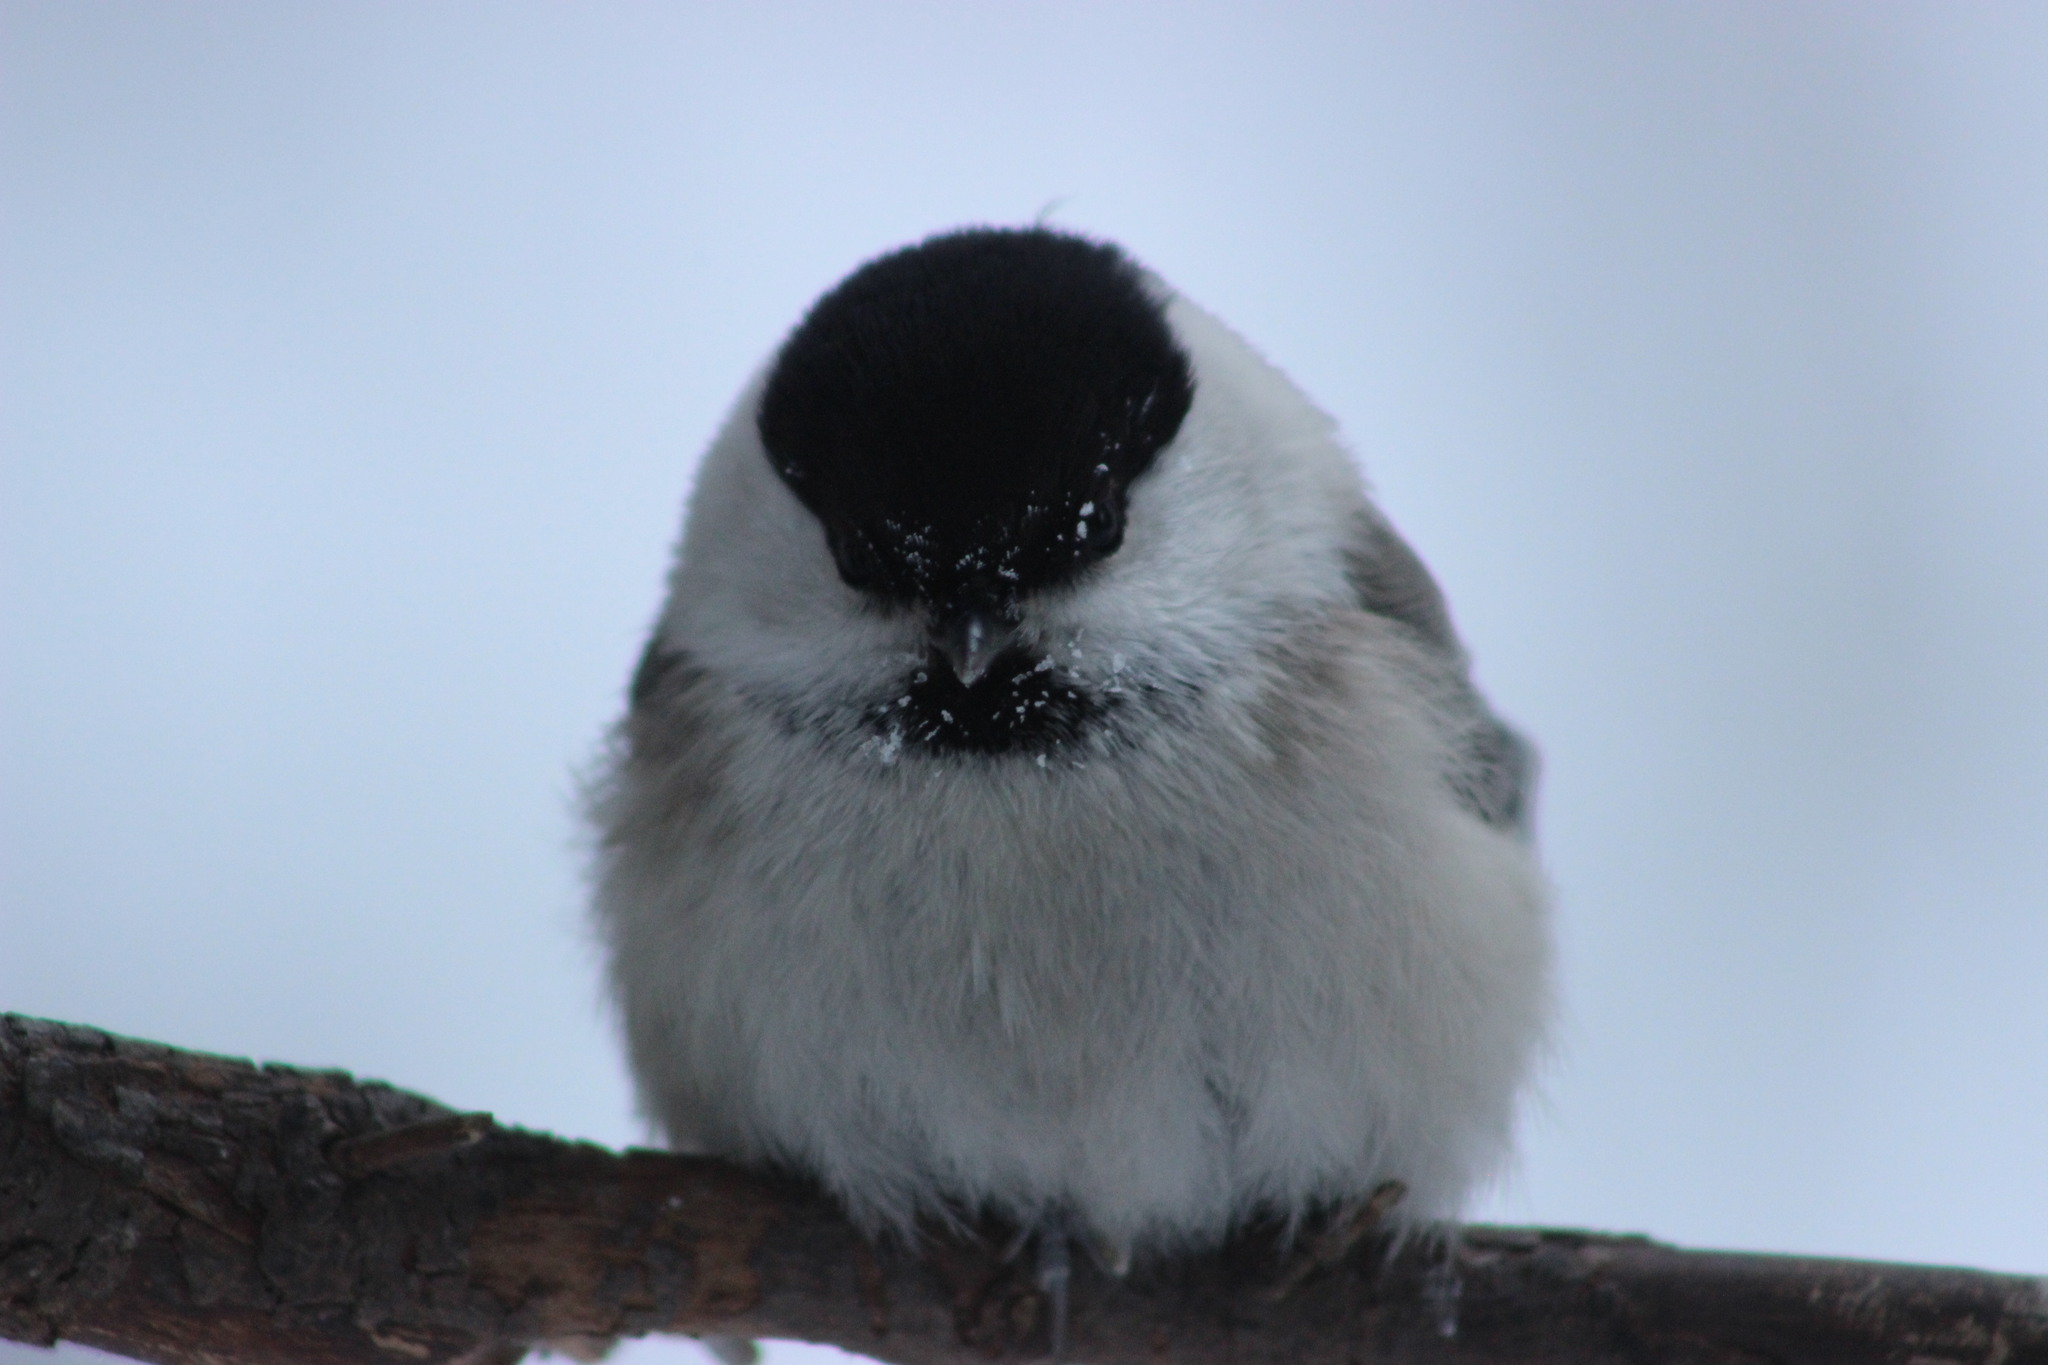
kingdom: Animalia
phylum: Chordata
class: Aves
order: Passeriformes
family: Paridae
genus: Poecile
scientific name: Poecile montanus
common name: Willow tit
